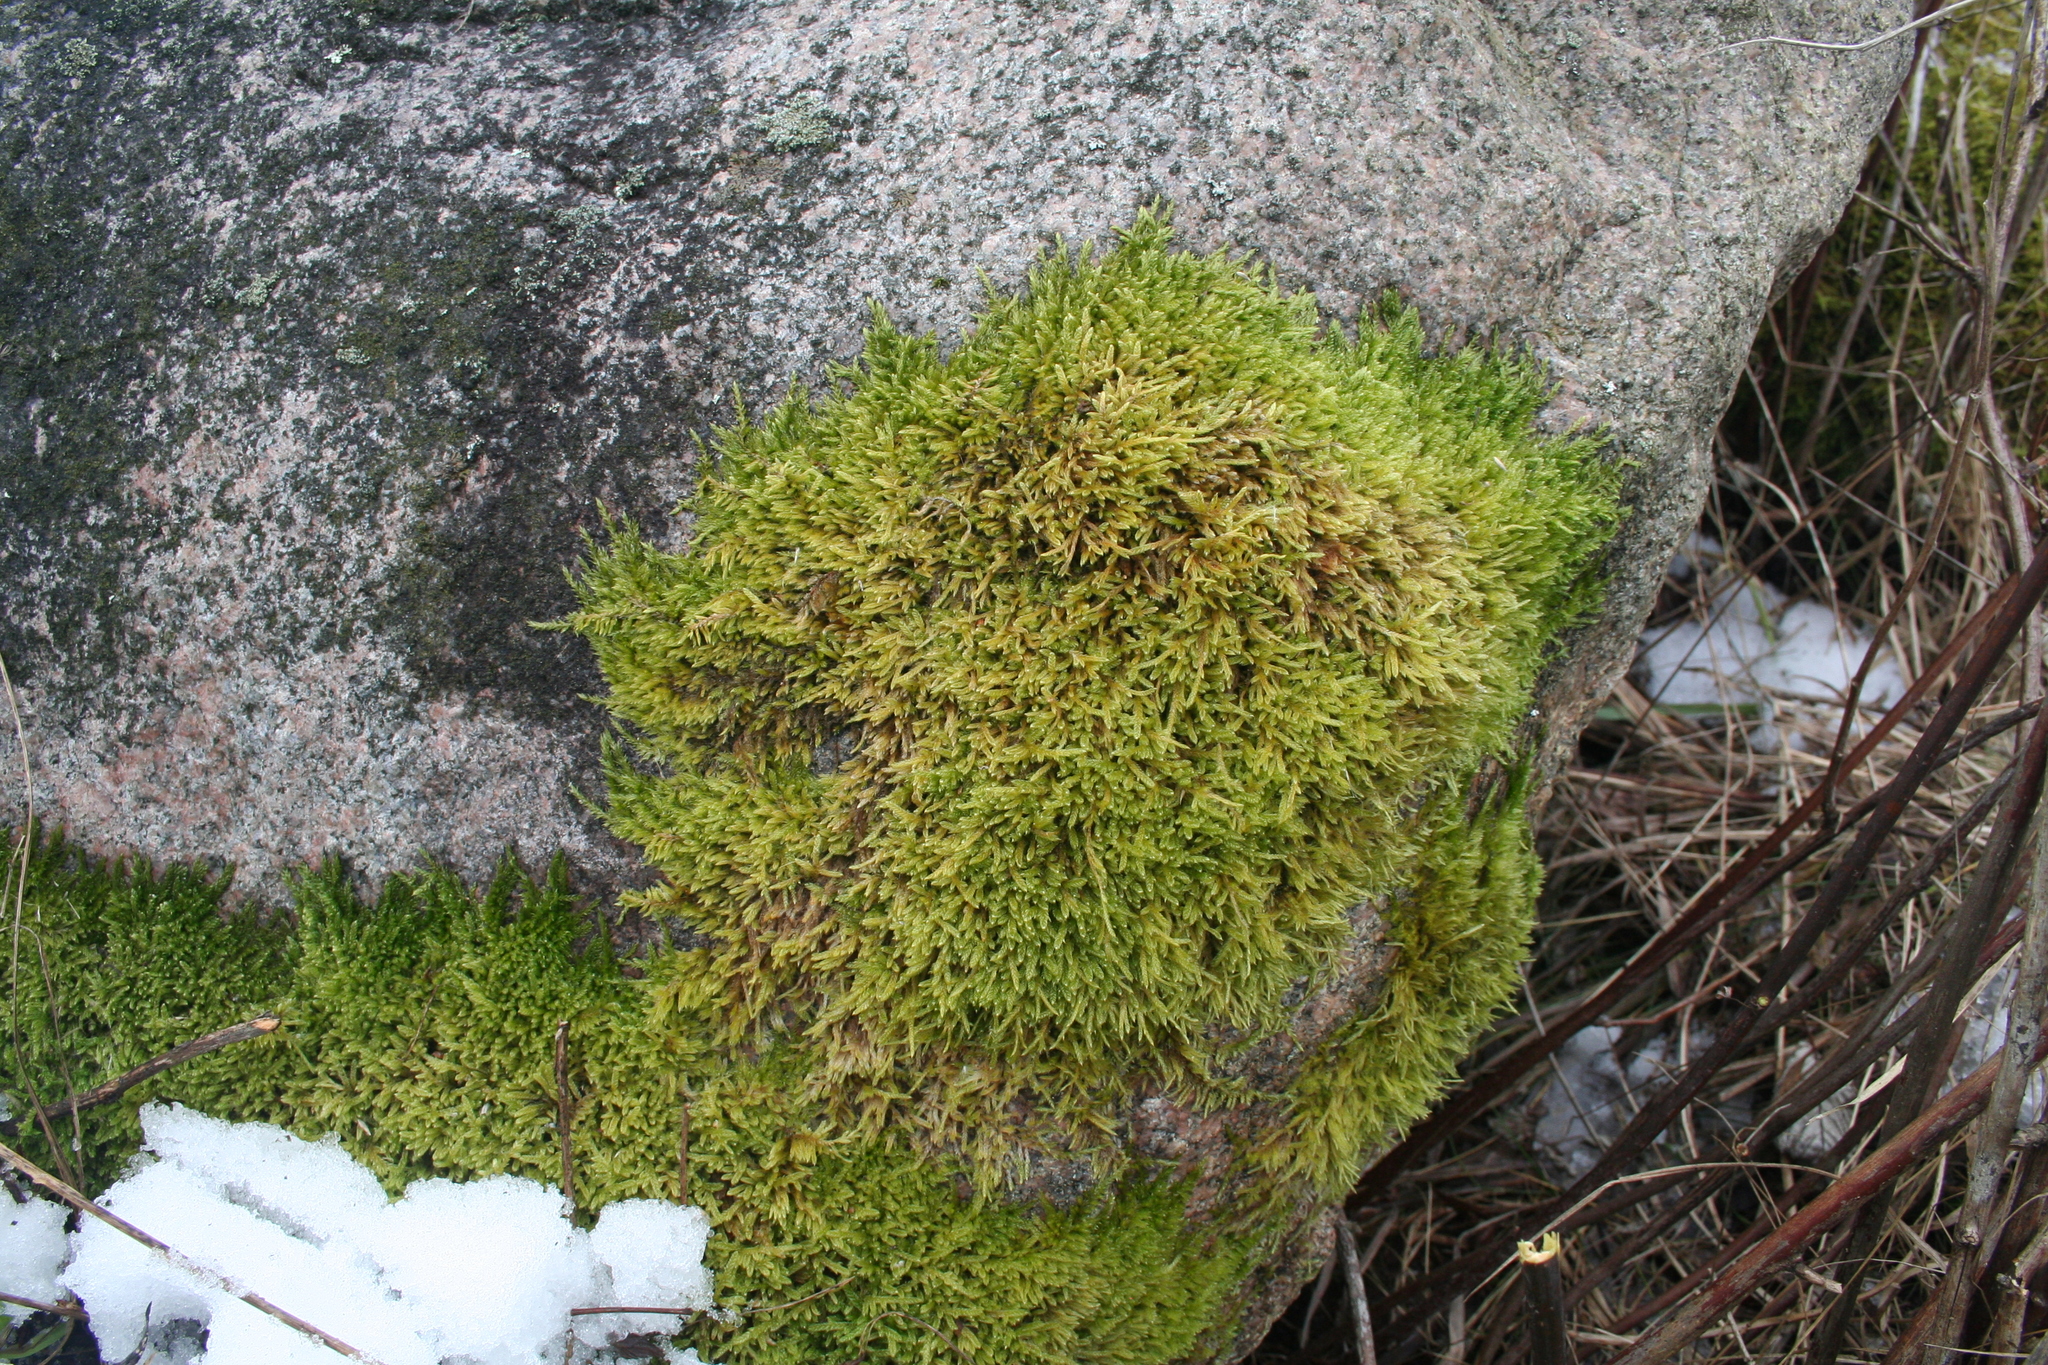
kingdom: Plantae
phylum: Bryophyta
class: Bryopsida
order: Hypnales
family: Hypnaceae
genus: Hypnum
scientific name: Hypnum cupressiforme
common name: Cypress-leaved plait-moss
